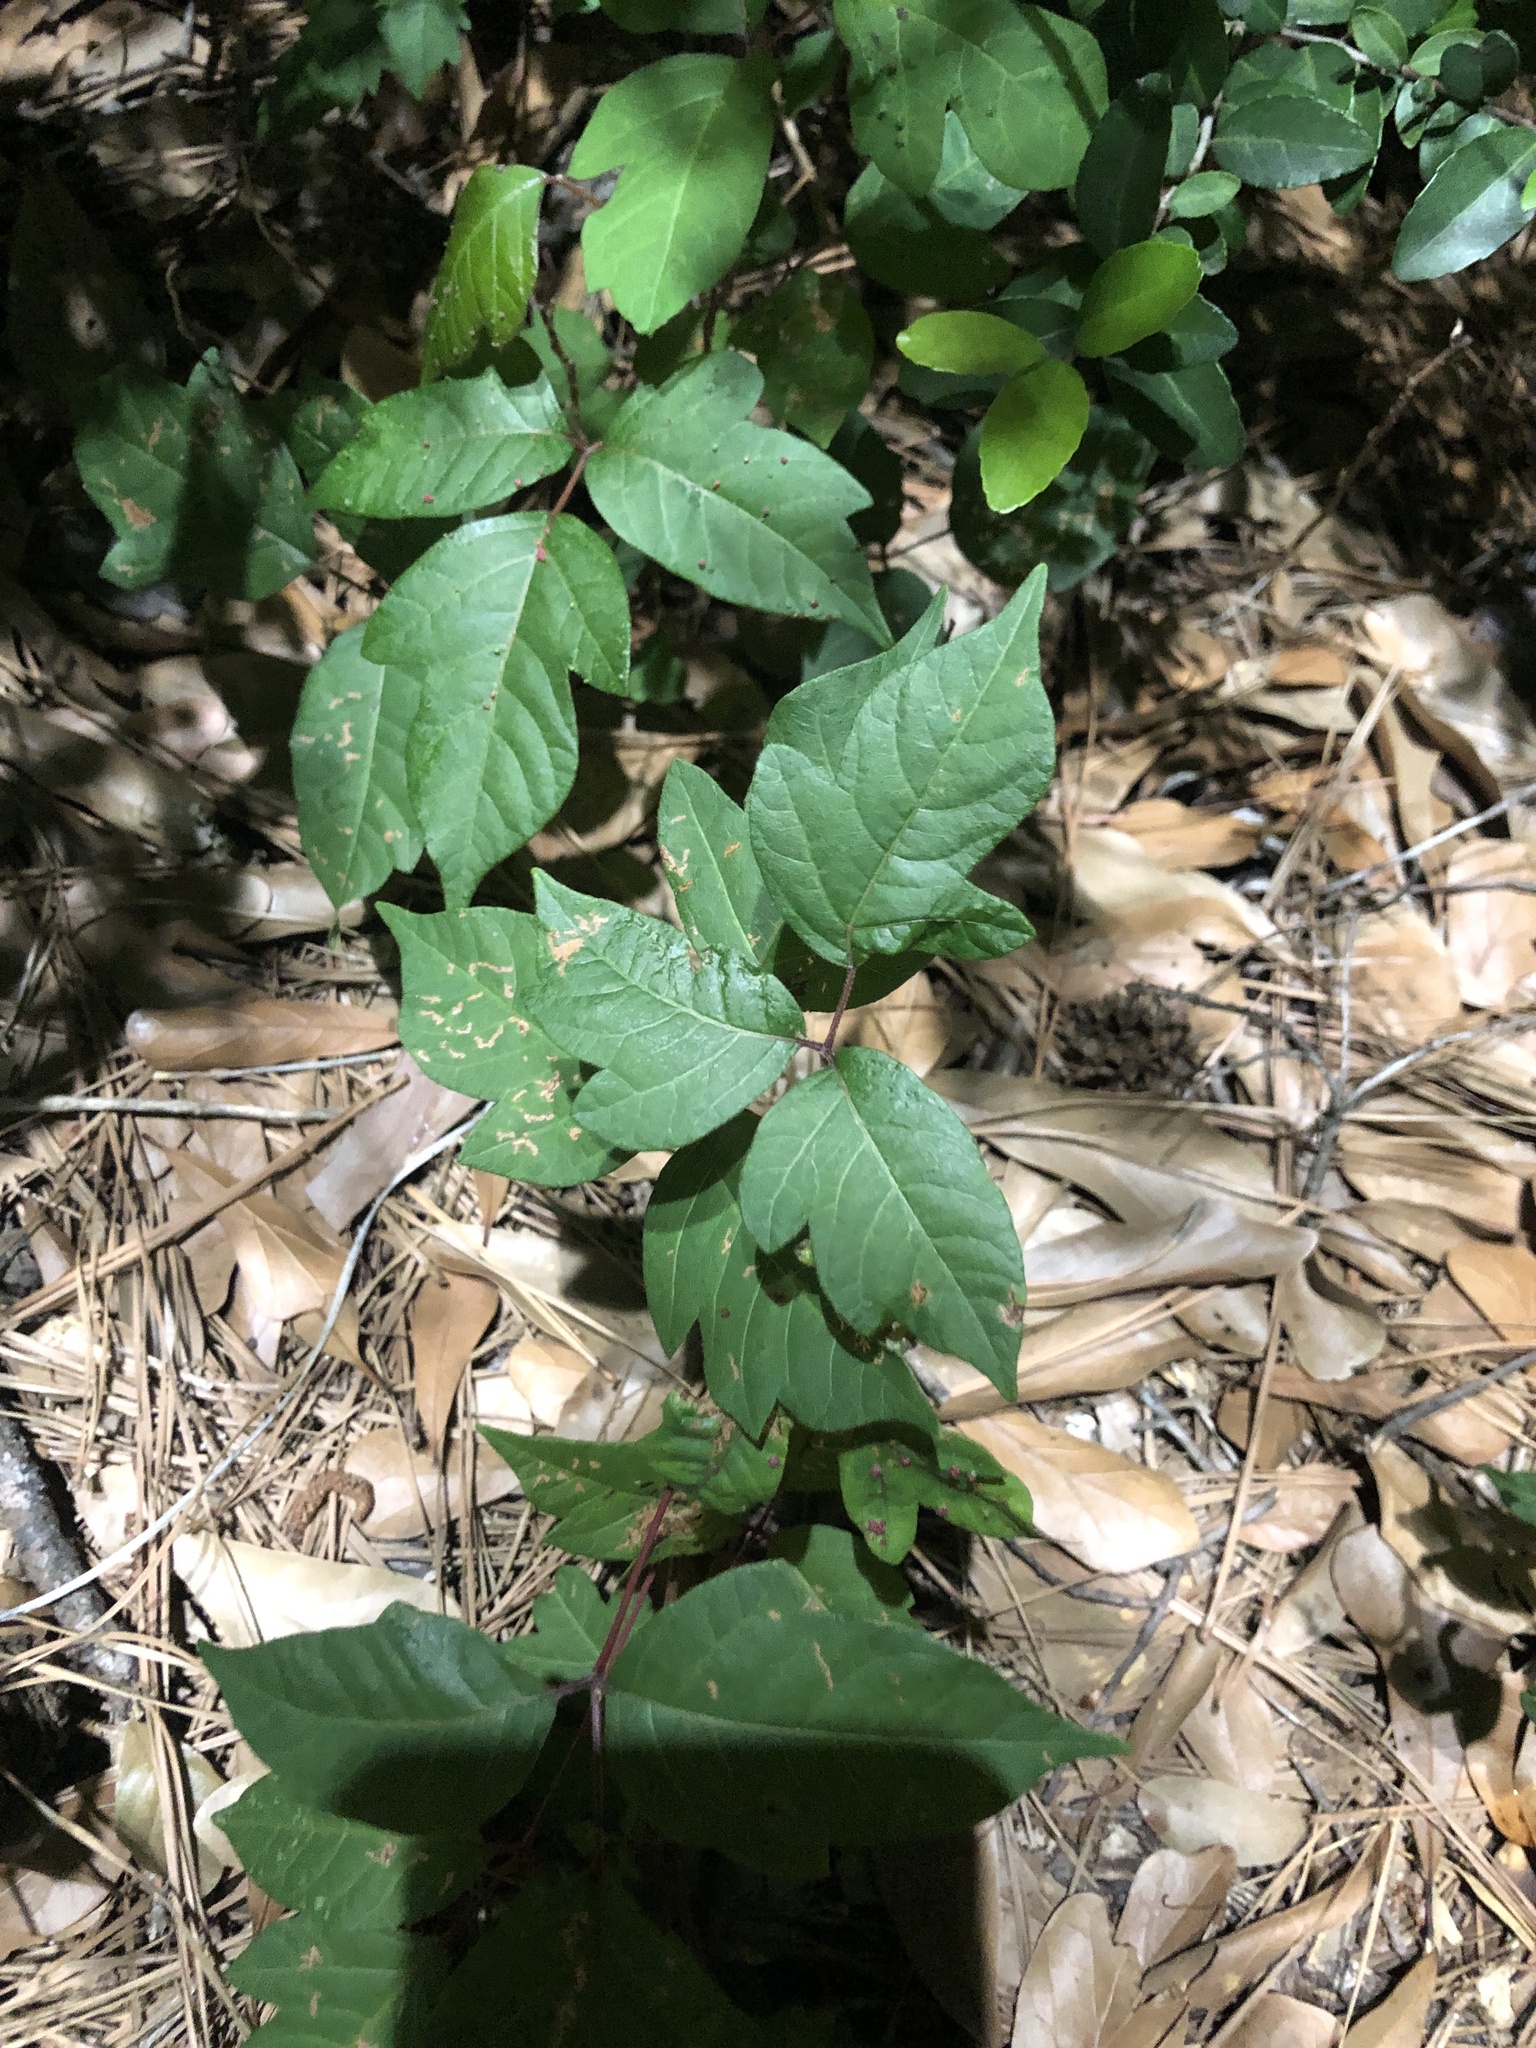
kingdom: Plantae
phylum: Tracheophyta
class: Magnoliopsida
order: Sapindales
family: Anacardiaceae
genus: Toxicodendron
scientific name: Toxicodendron radicans
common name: Poison ivy
